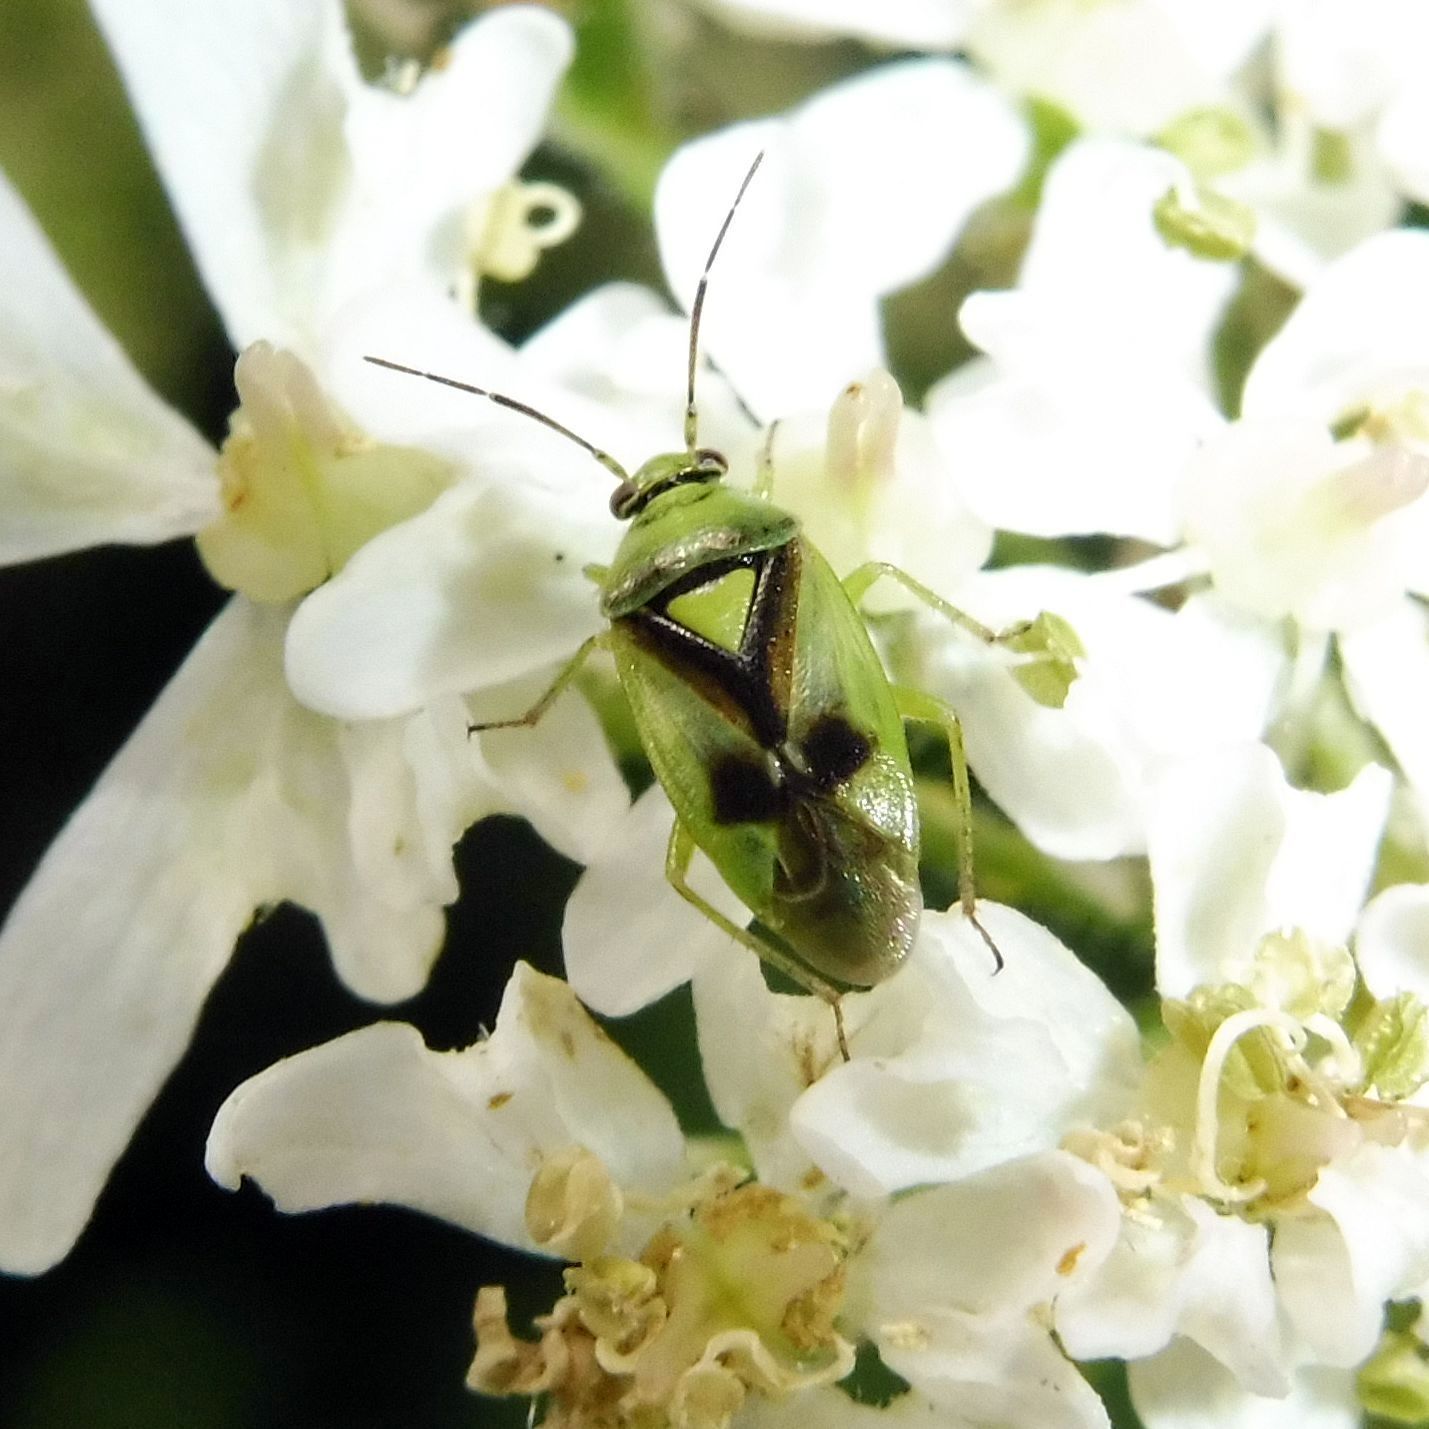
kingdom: Animalia
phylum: Arthropoda
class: Insecta
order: Hemiptera
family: Miridae
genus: Orthops
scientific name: Orthops campestris
